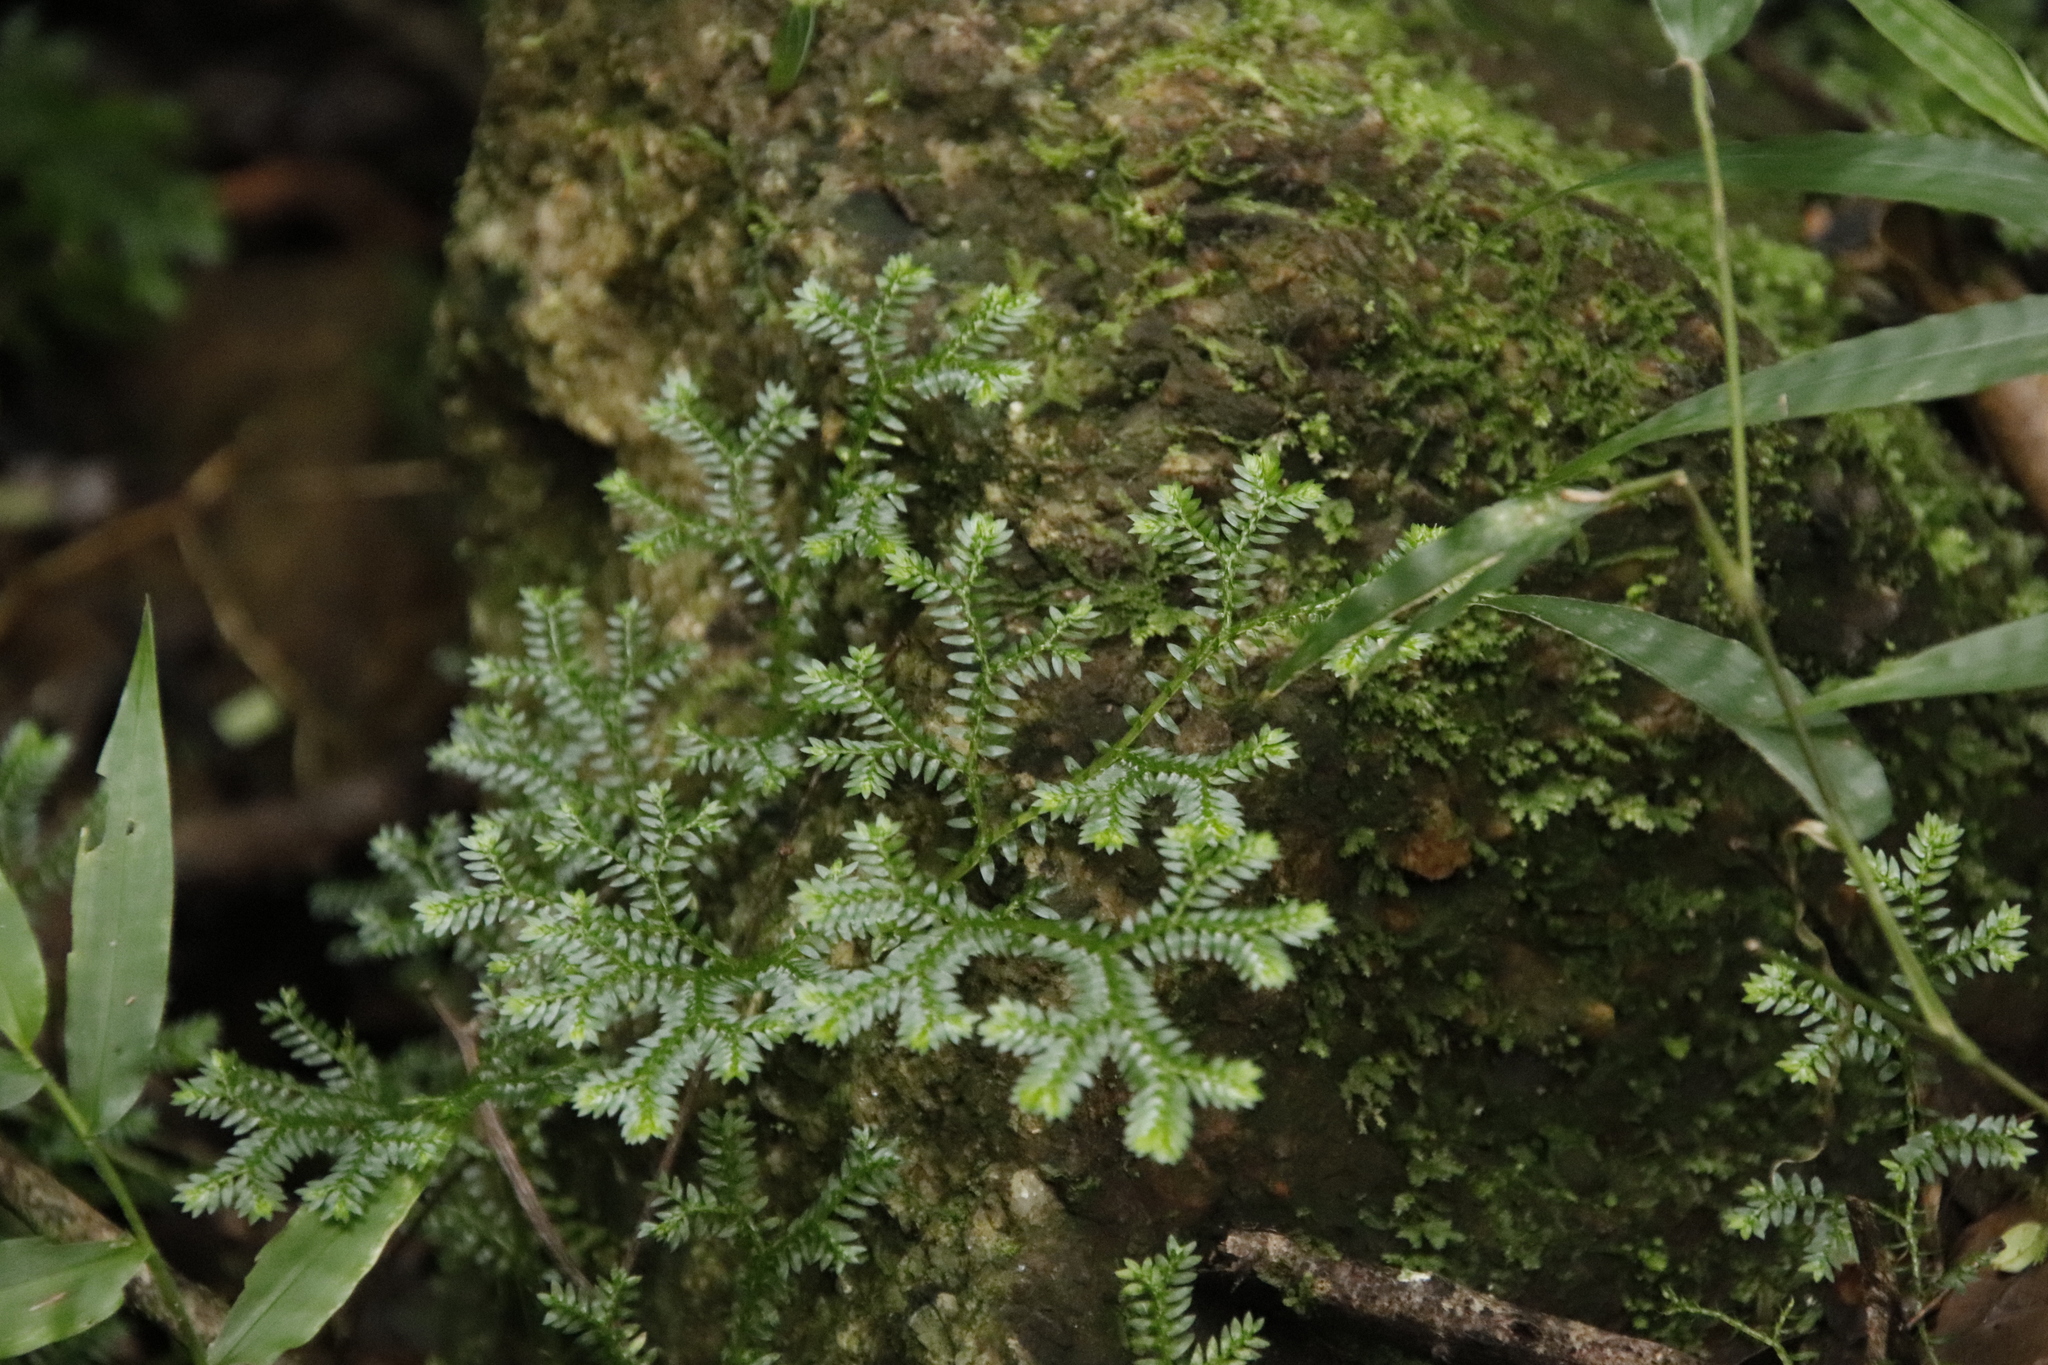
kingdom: Plantae
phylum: Tracheophyta
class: Lycopodiopsida
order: Selaginellales
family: Selaginellaceae
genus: Selaginella
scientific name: Selaginella kraussiana
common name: Krauss' spikemoss
